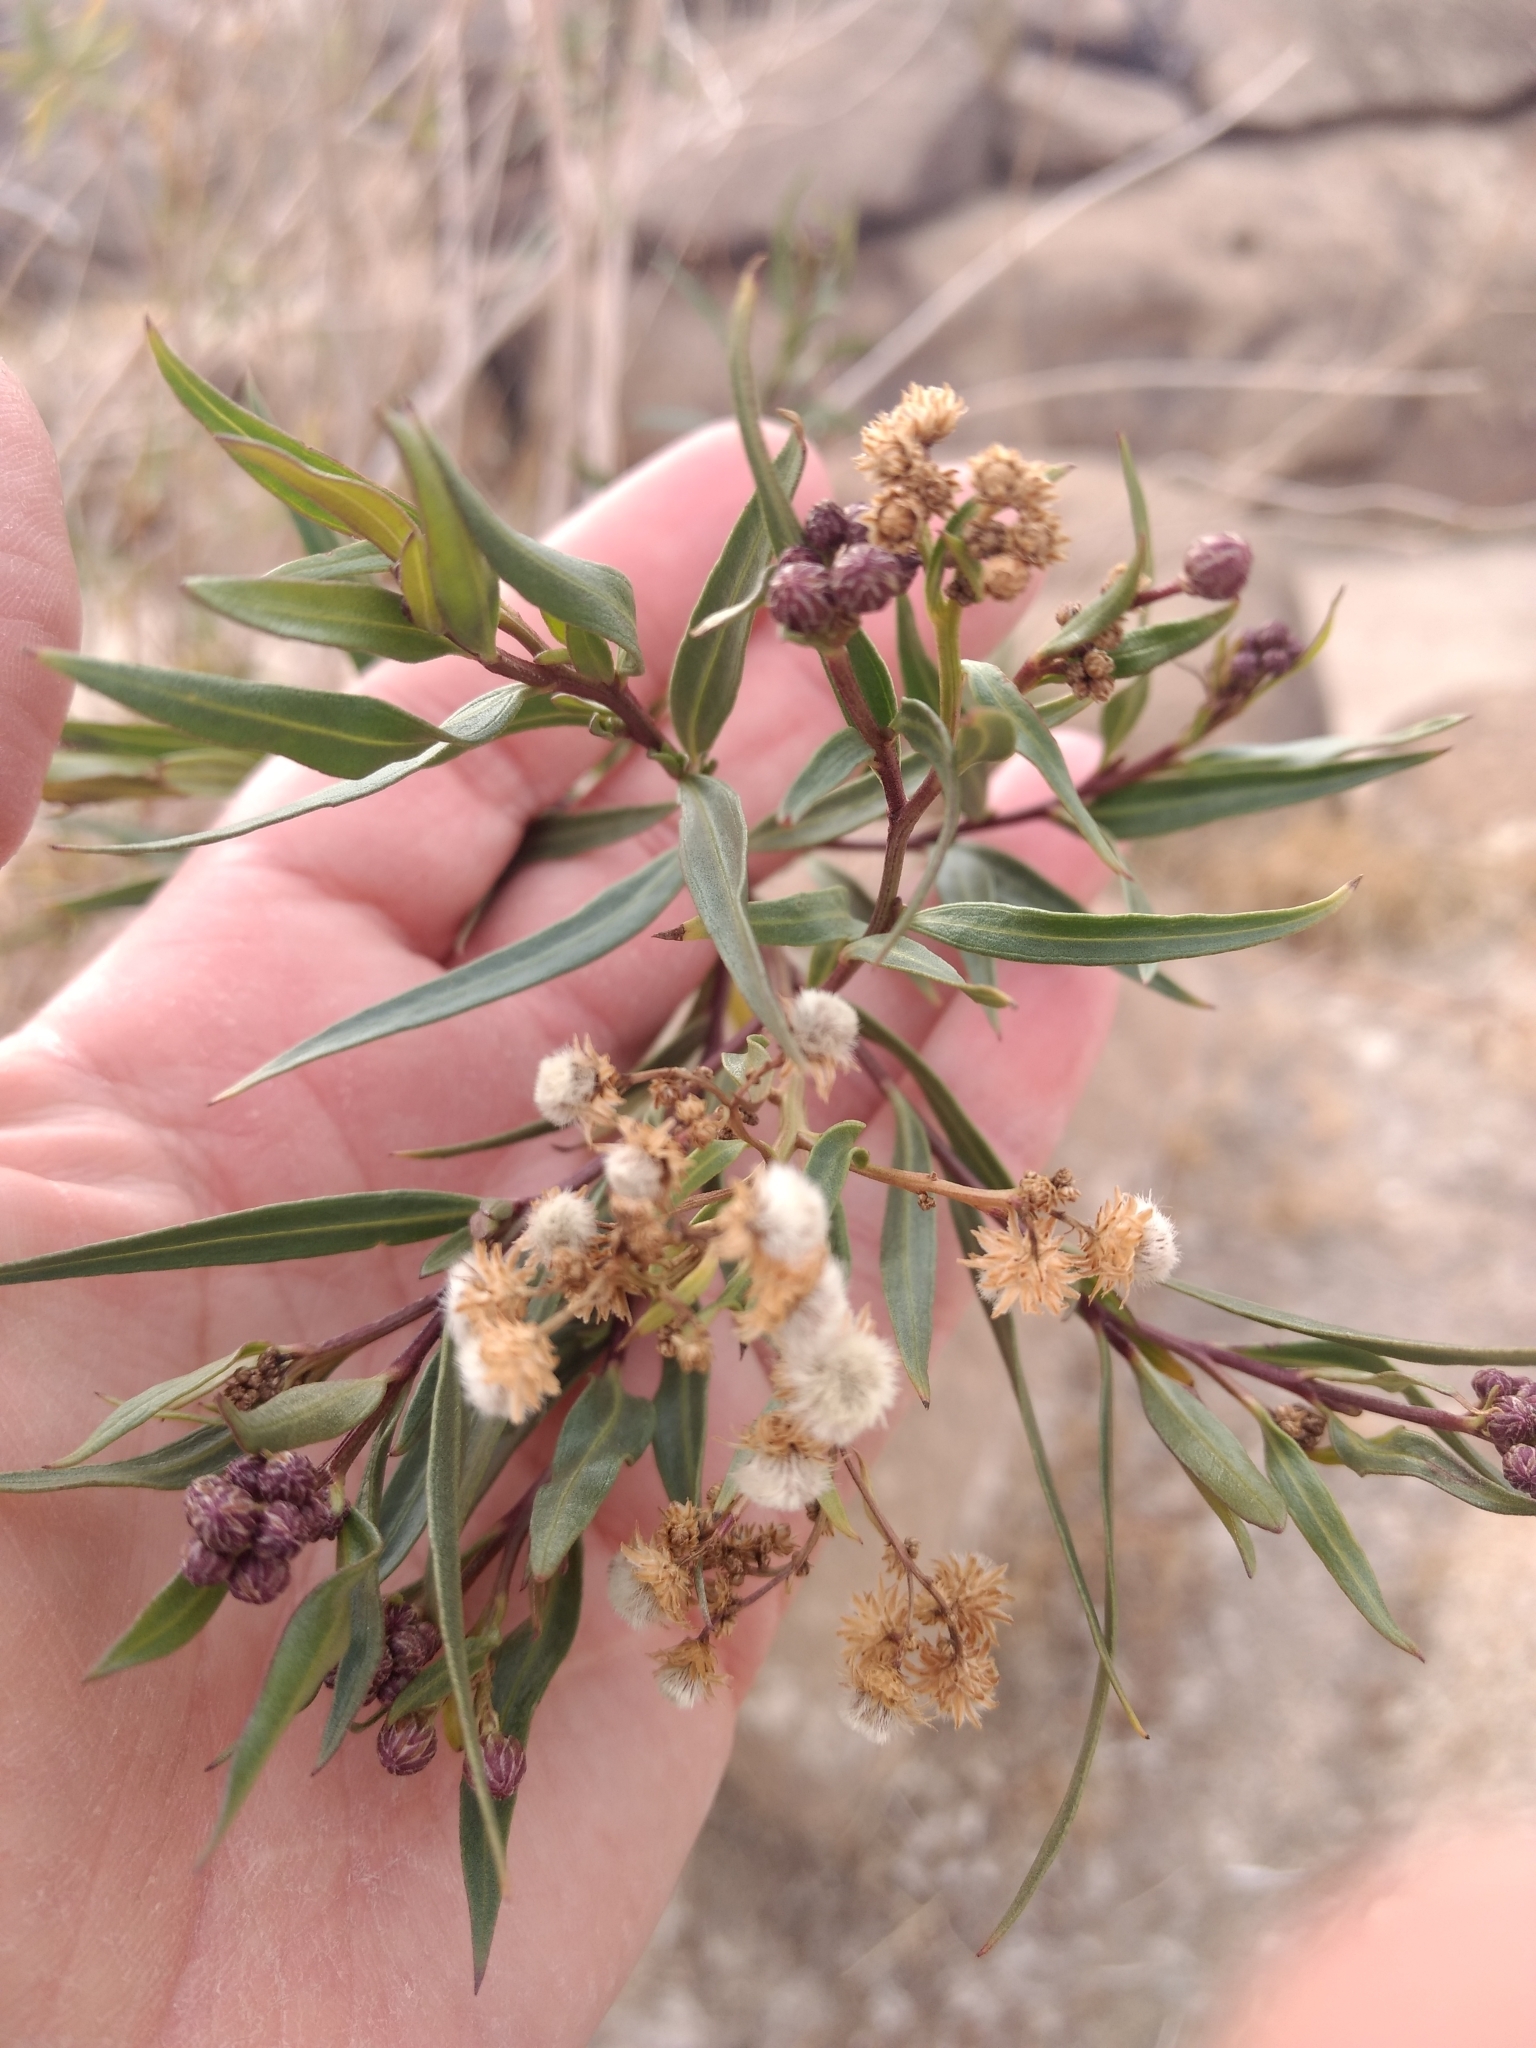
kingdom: Plantae
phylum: Tracheophyta
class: Magnoliopsida
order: Asterales
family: Asteraceae
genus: Baccharis
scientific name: Baccharis salicifolia
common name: Sticky baccharis
